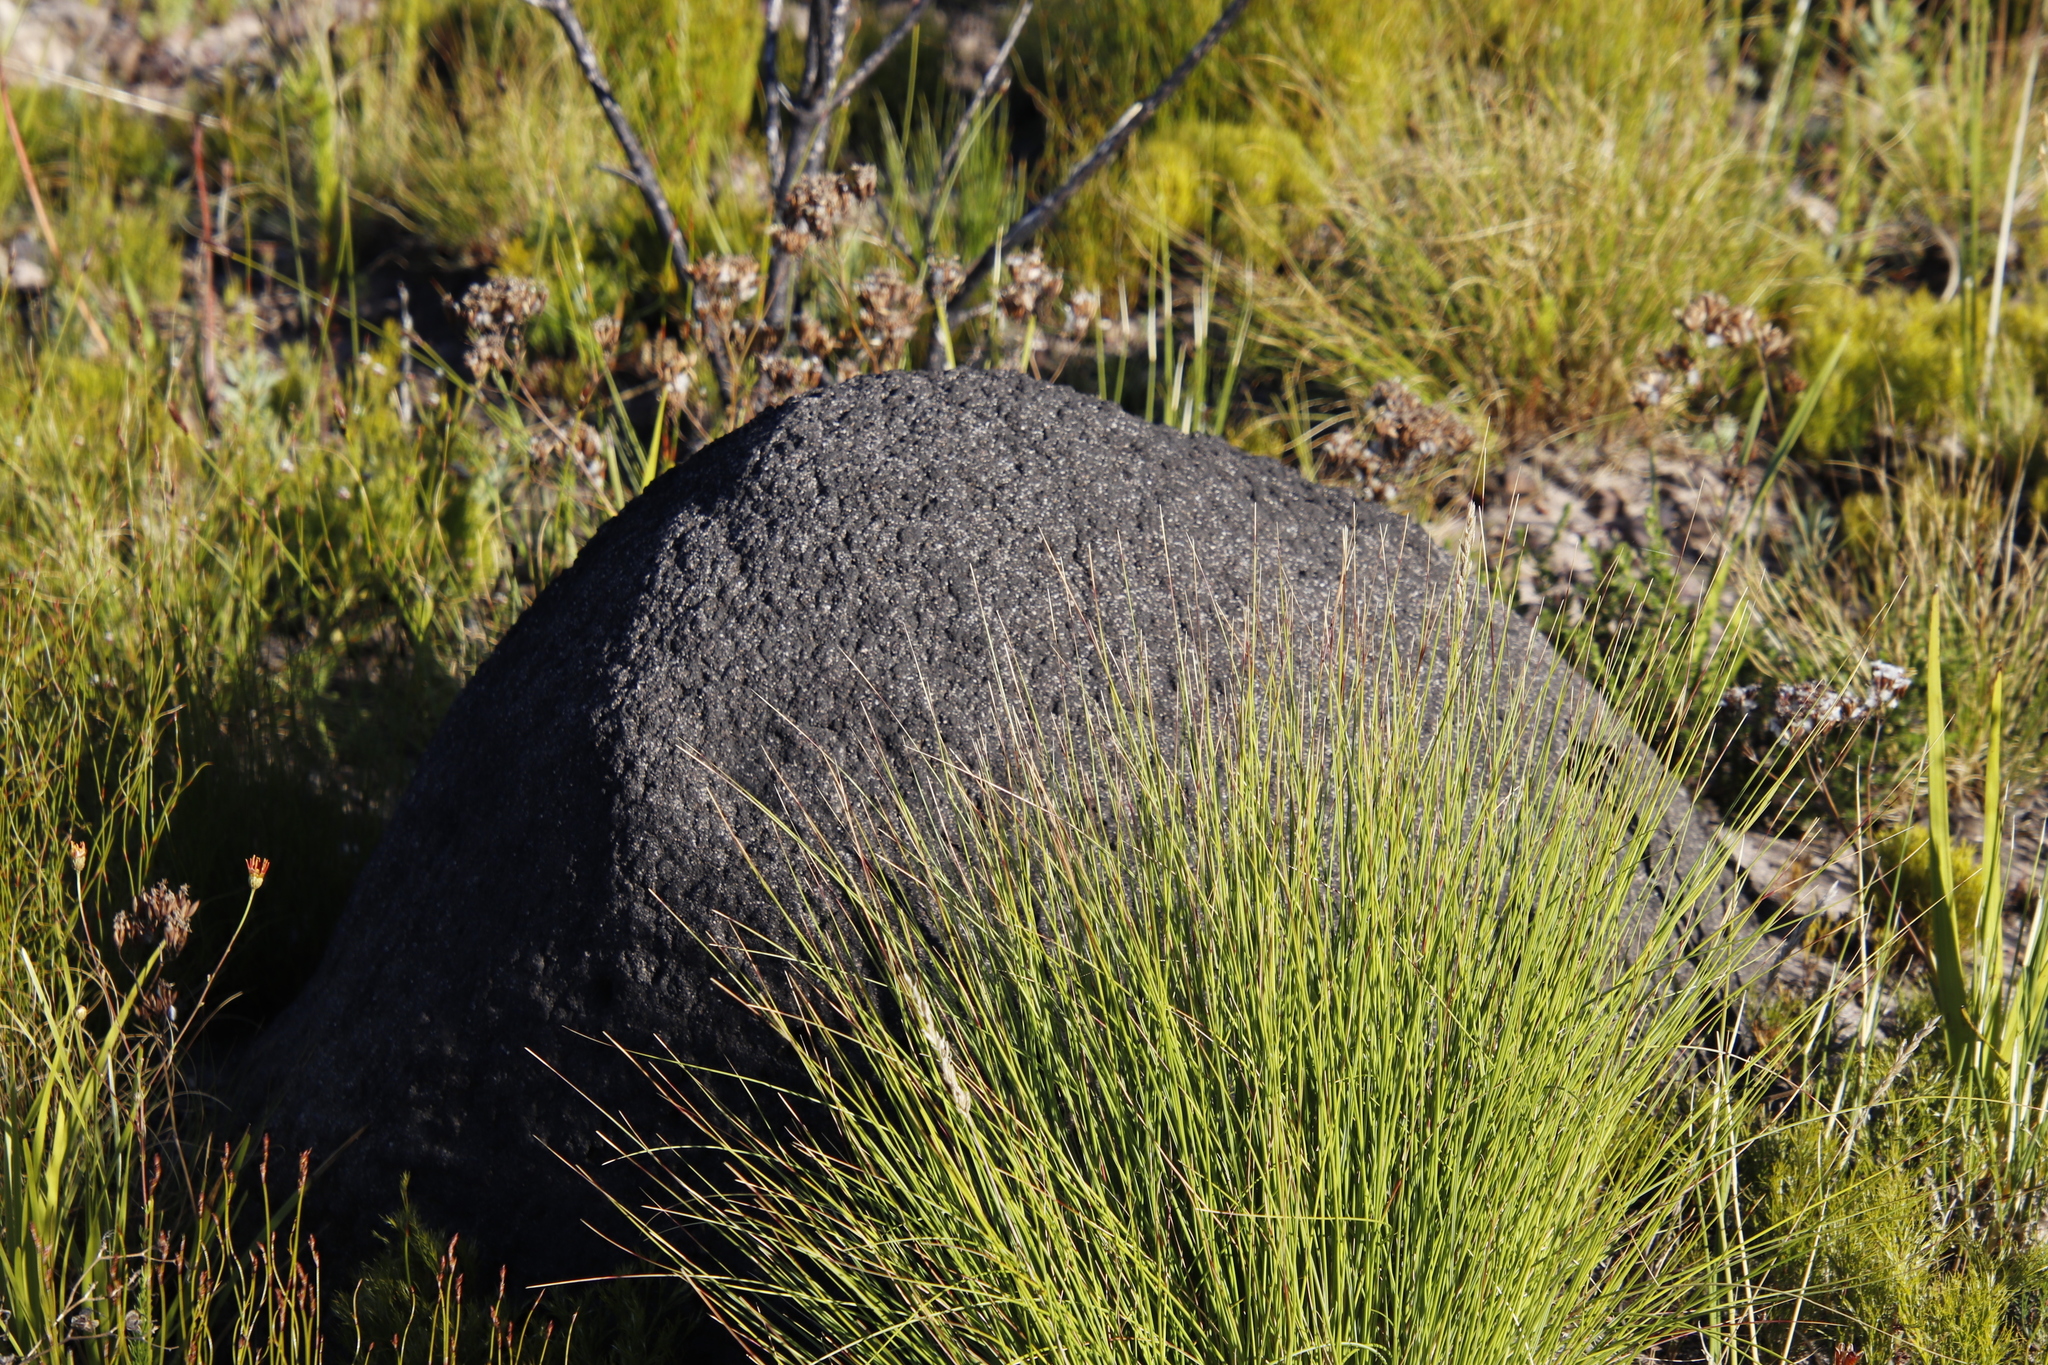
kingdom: Animalia
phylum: Arthropoda
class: Insecta
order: Blattodea
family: Termitidae
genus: Amitermes
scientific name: Amitermes hastatus
